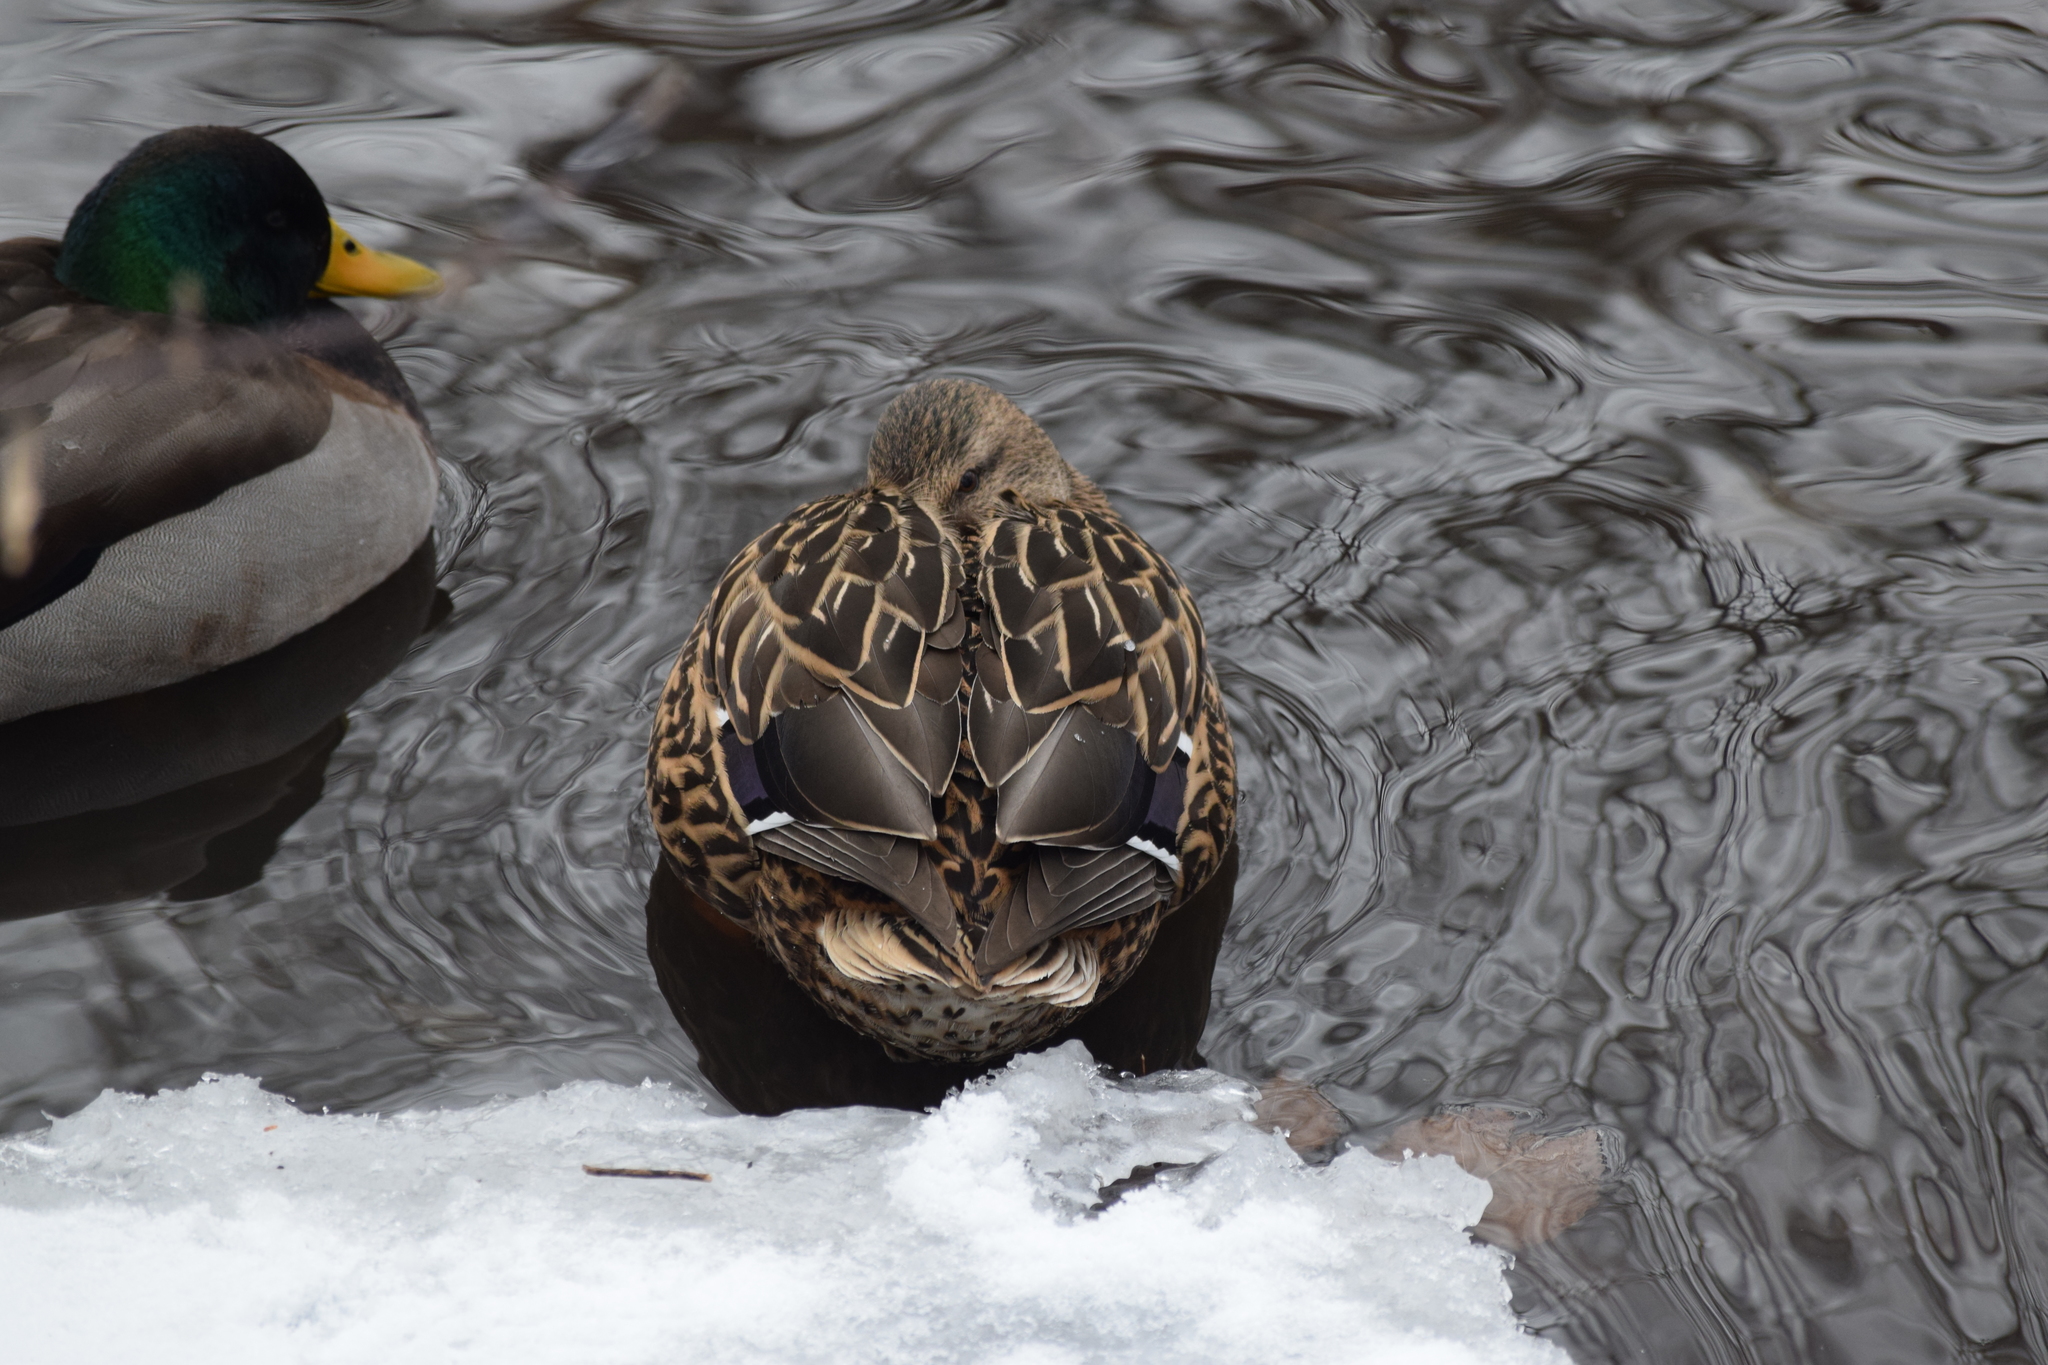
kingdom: Animalia
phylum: Chordata
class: Aves
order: Anseriformes
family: Anatidae
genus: Anas
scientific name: Anas platyrhynchos
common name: Mallard
